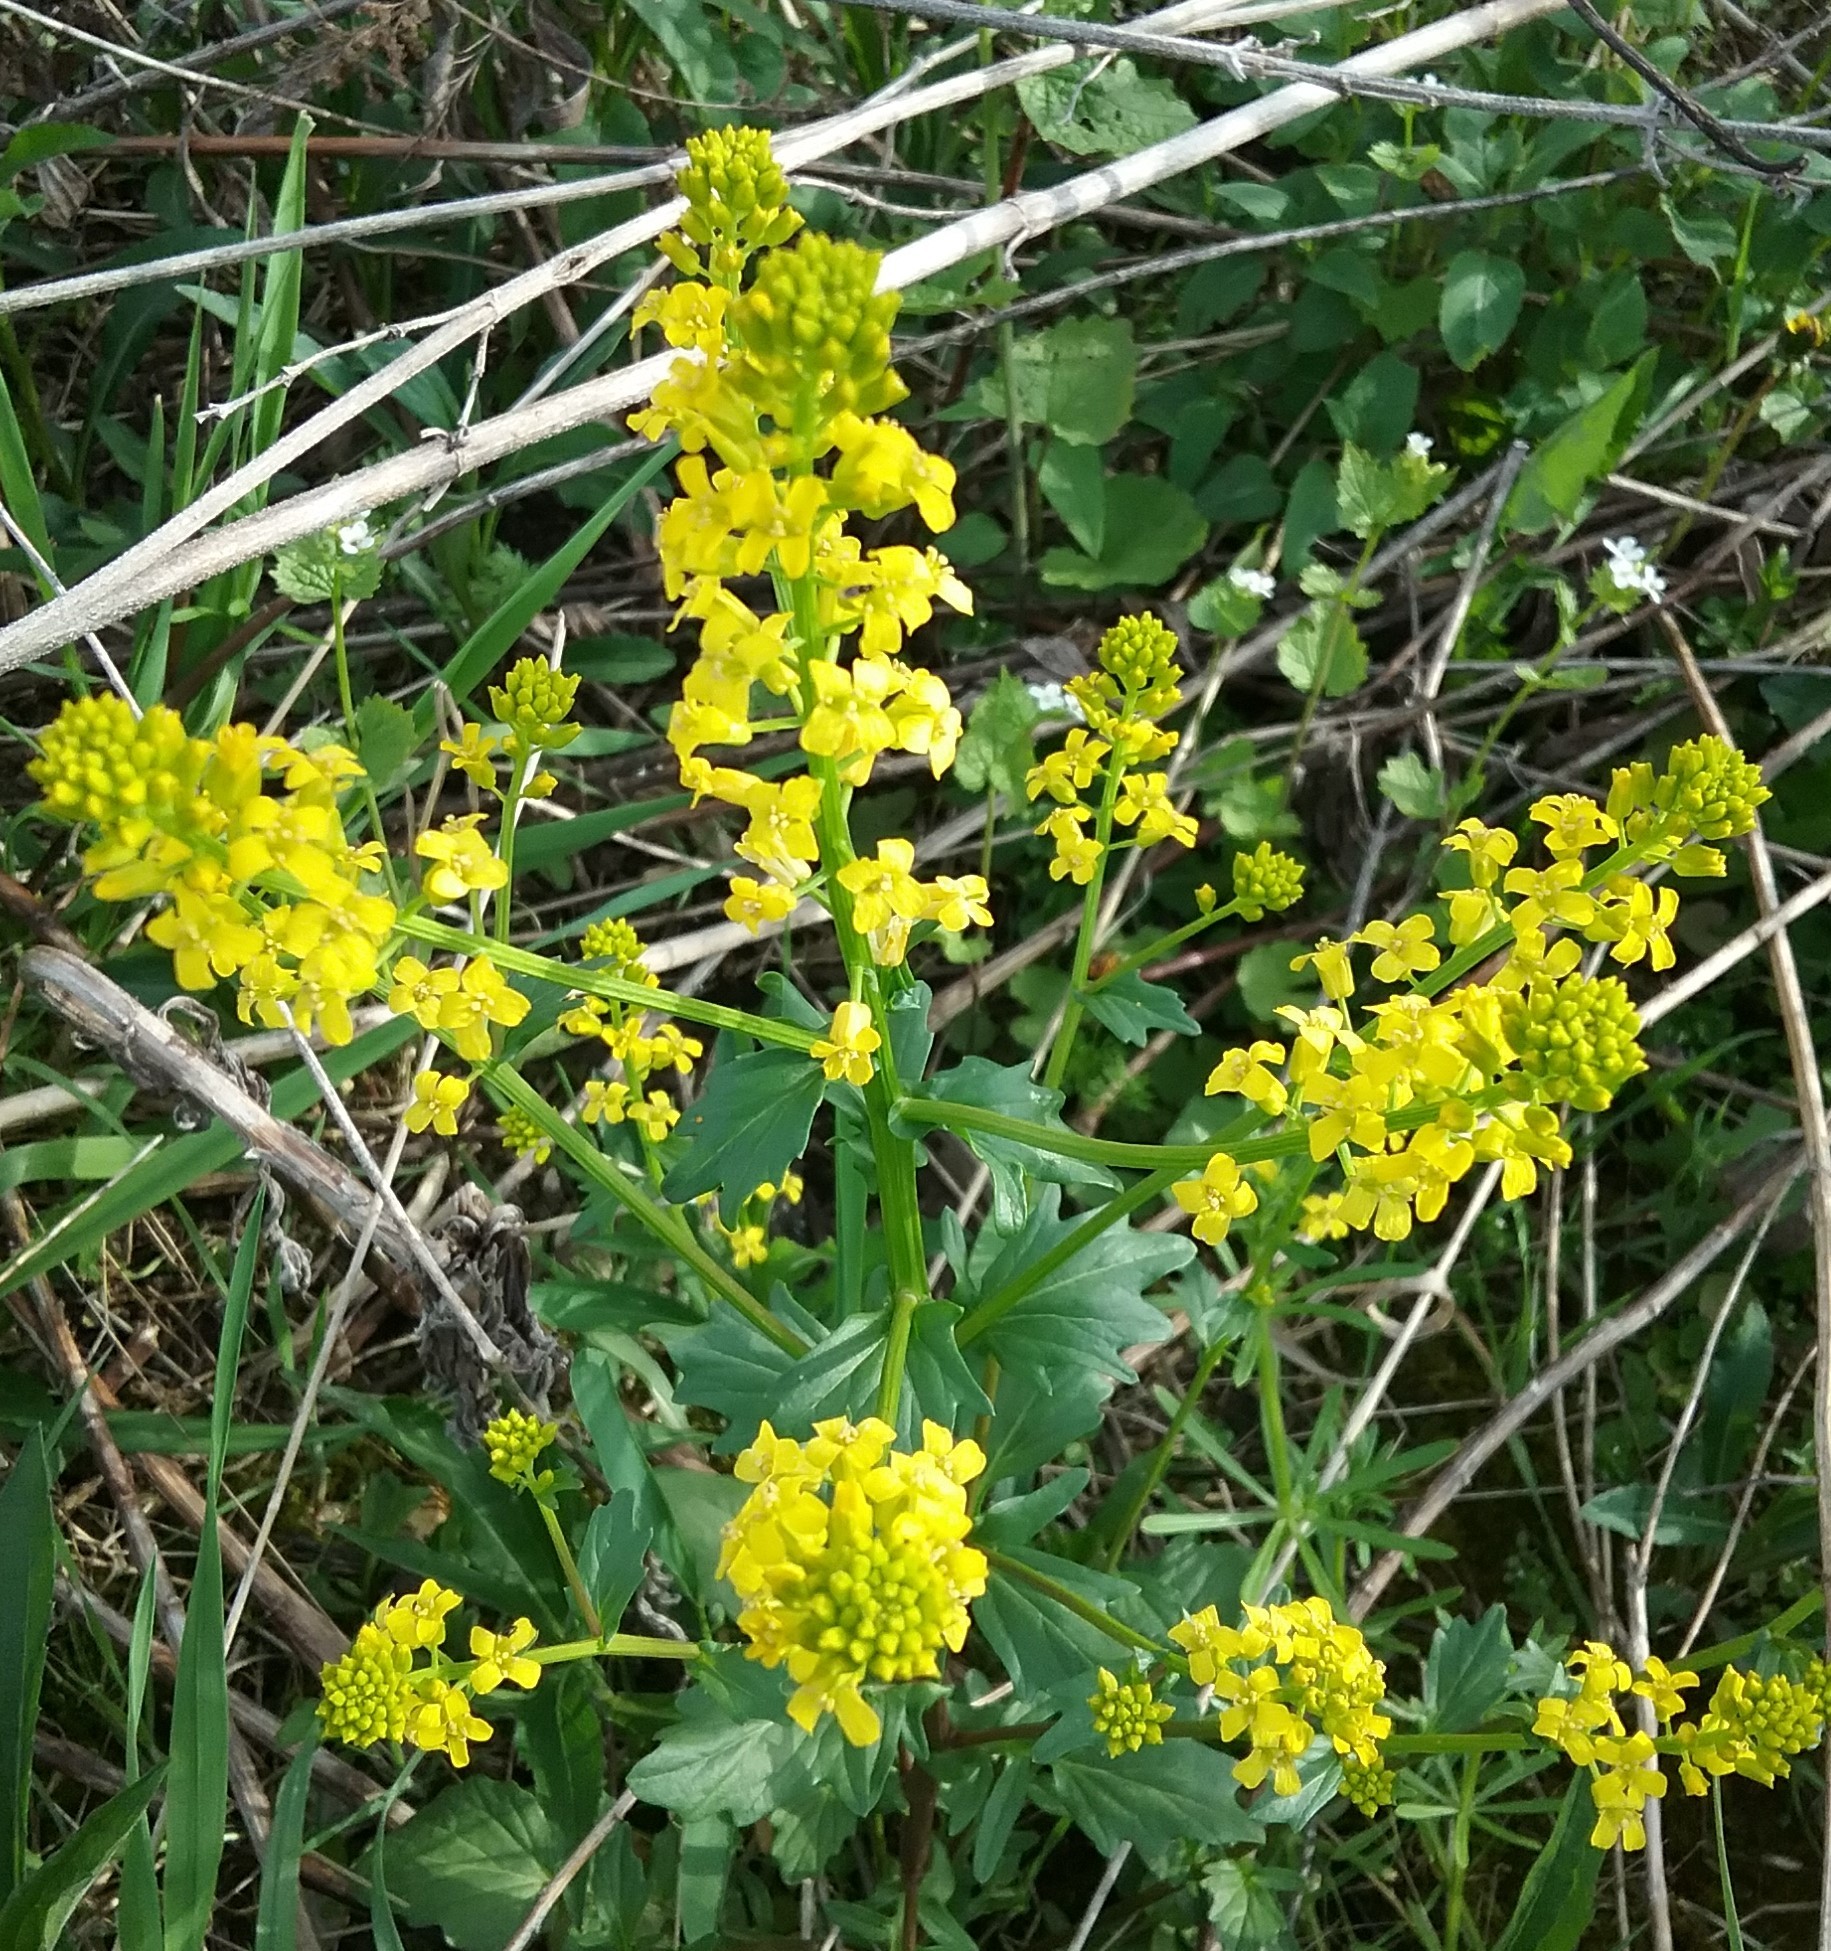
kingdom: Plantae
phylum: Tracheophyta
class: Magnoliopsida
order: Brassicales
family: Brassicaceae
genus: Barbarea
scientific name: Barbarea vulgaris
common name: Cressy-greens
